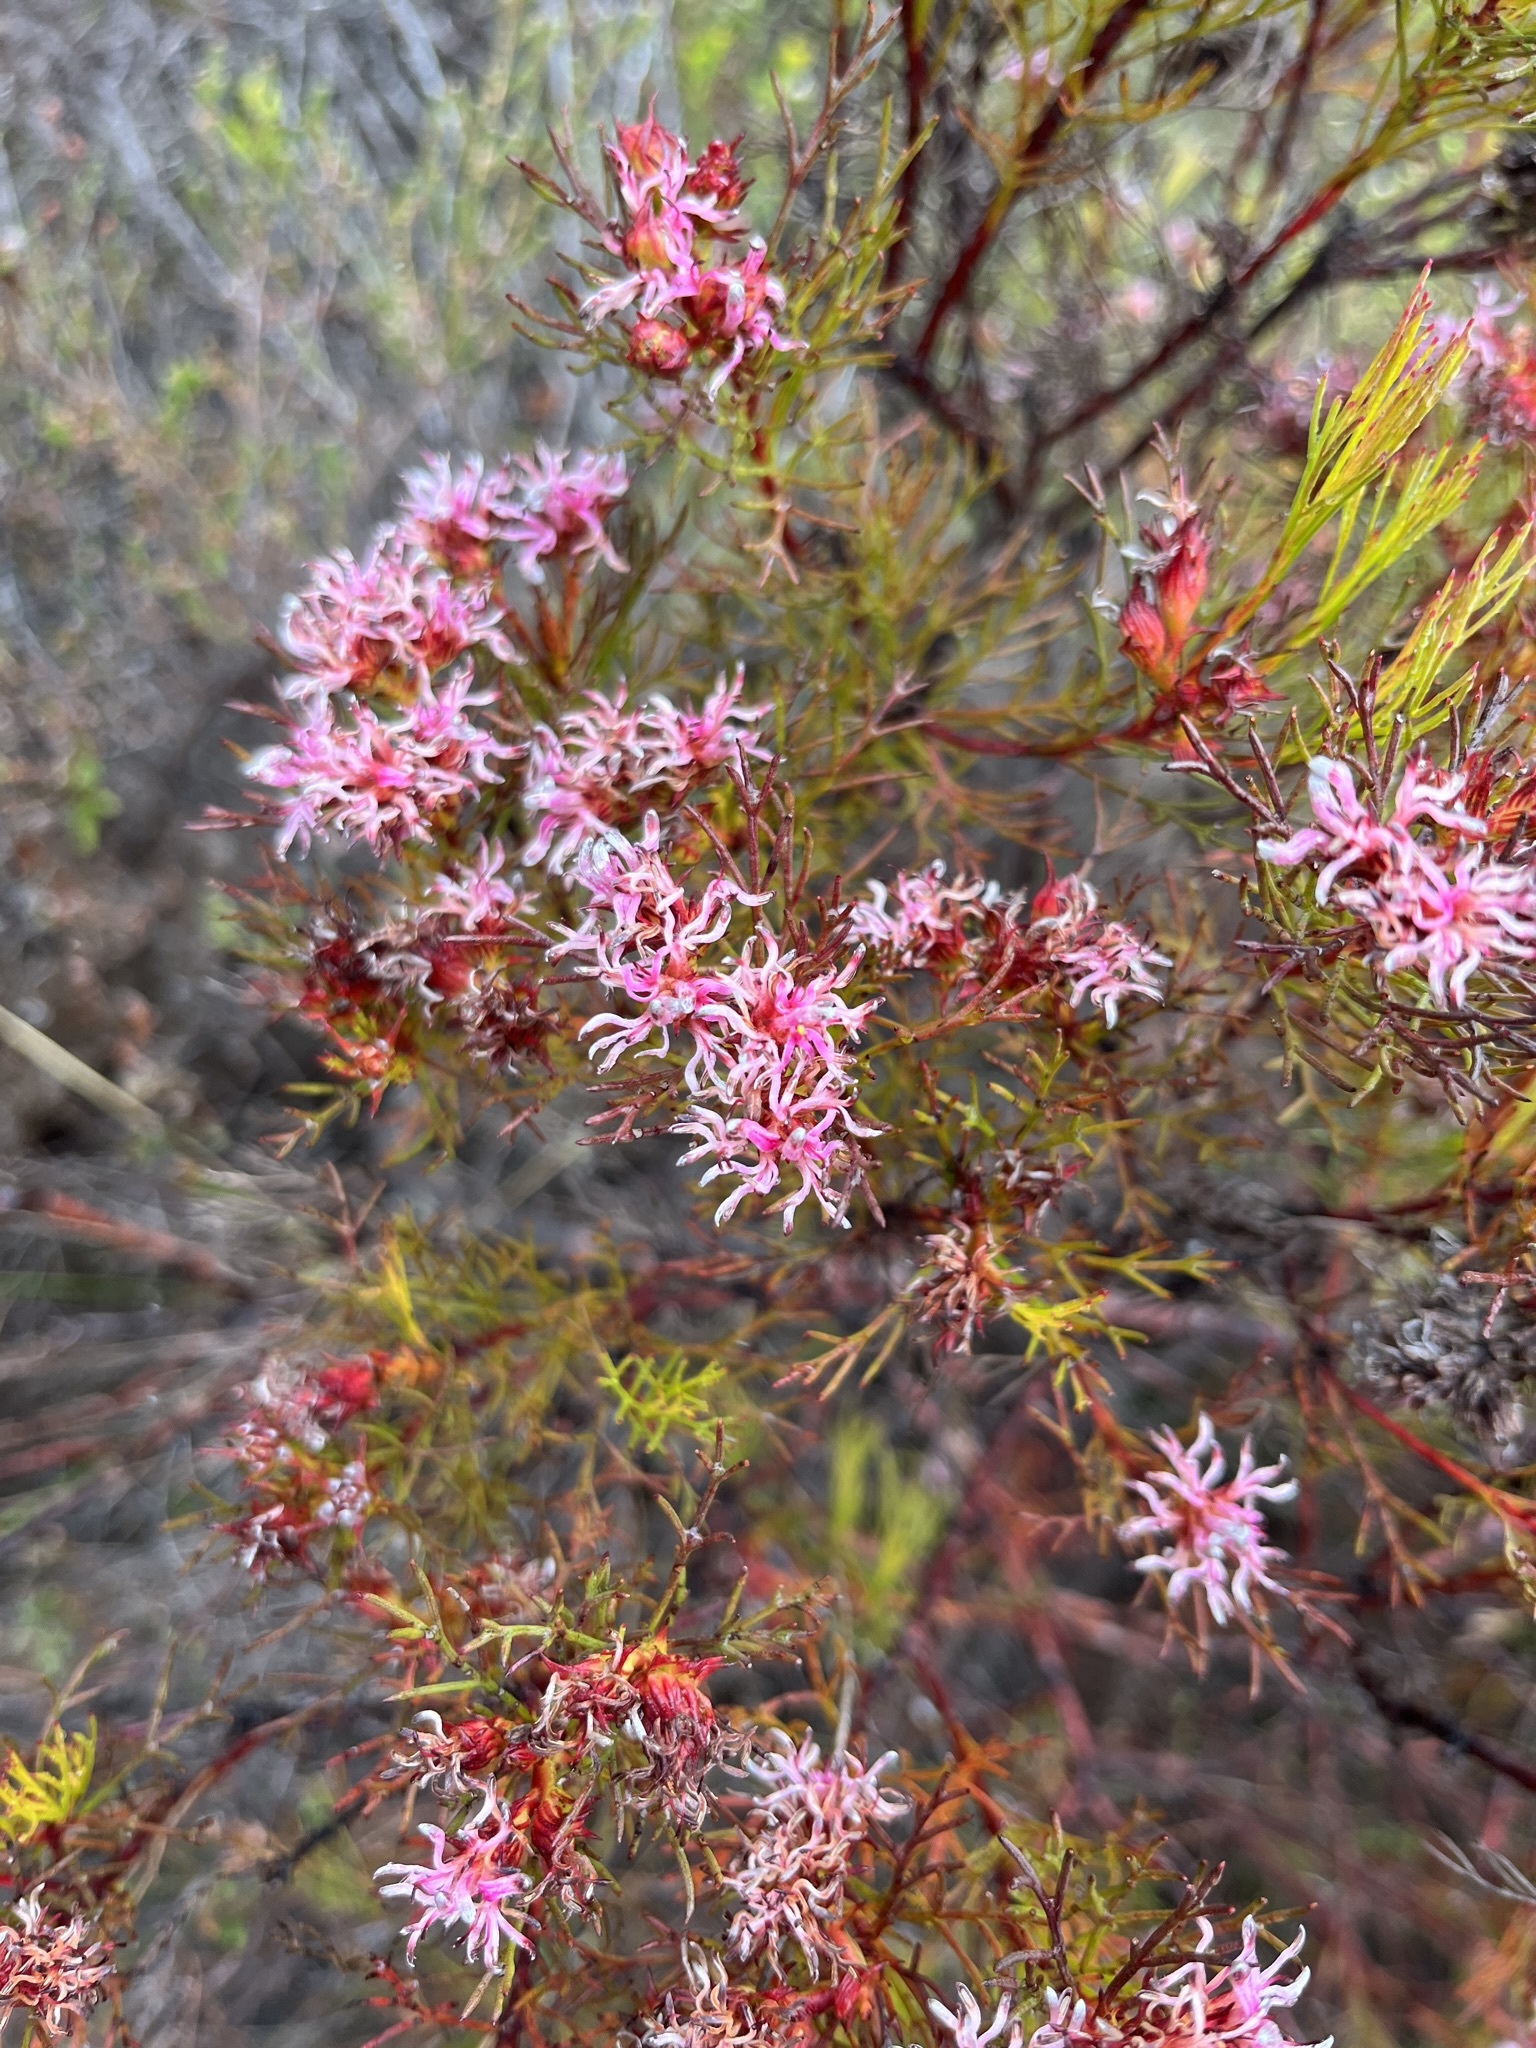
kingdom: Plantae
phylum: Tracheophyta
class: Magnoliopsida
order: Proteales
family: Proteaceae
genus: Serruria
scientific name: Serruria bolusii
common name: Agulhas spiderhead
